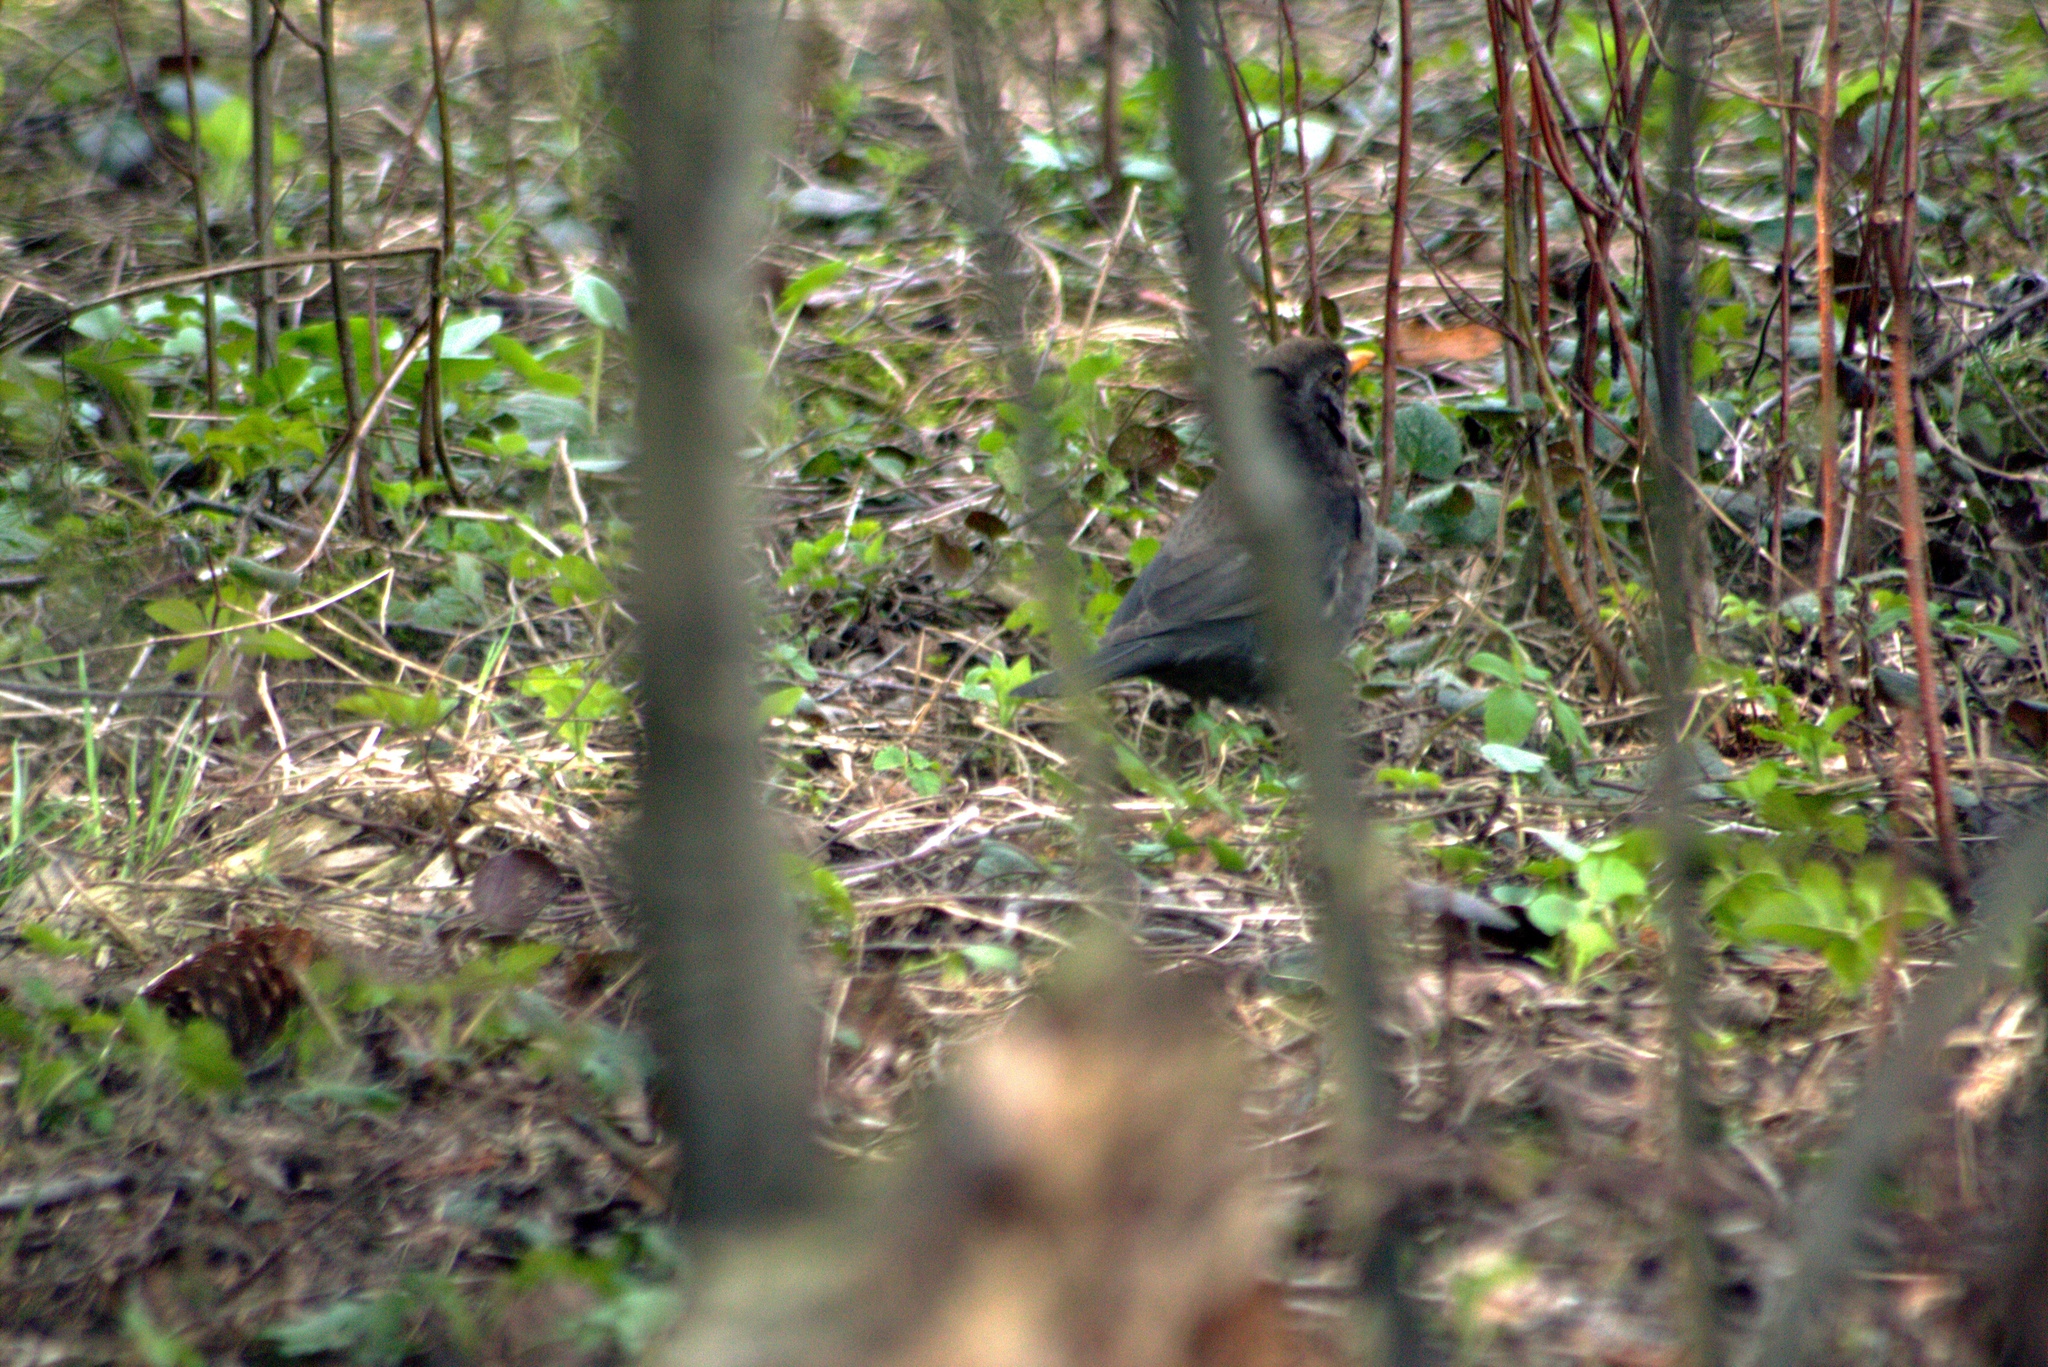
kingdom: Animalia
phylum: Chordata
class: Aves
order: Passeriformes
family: Turdidae
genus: Turdus
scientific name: Turdus merula
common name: Common blackbird
